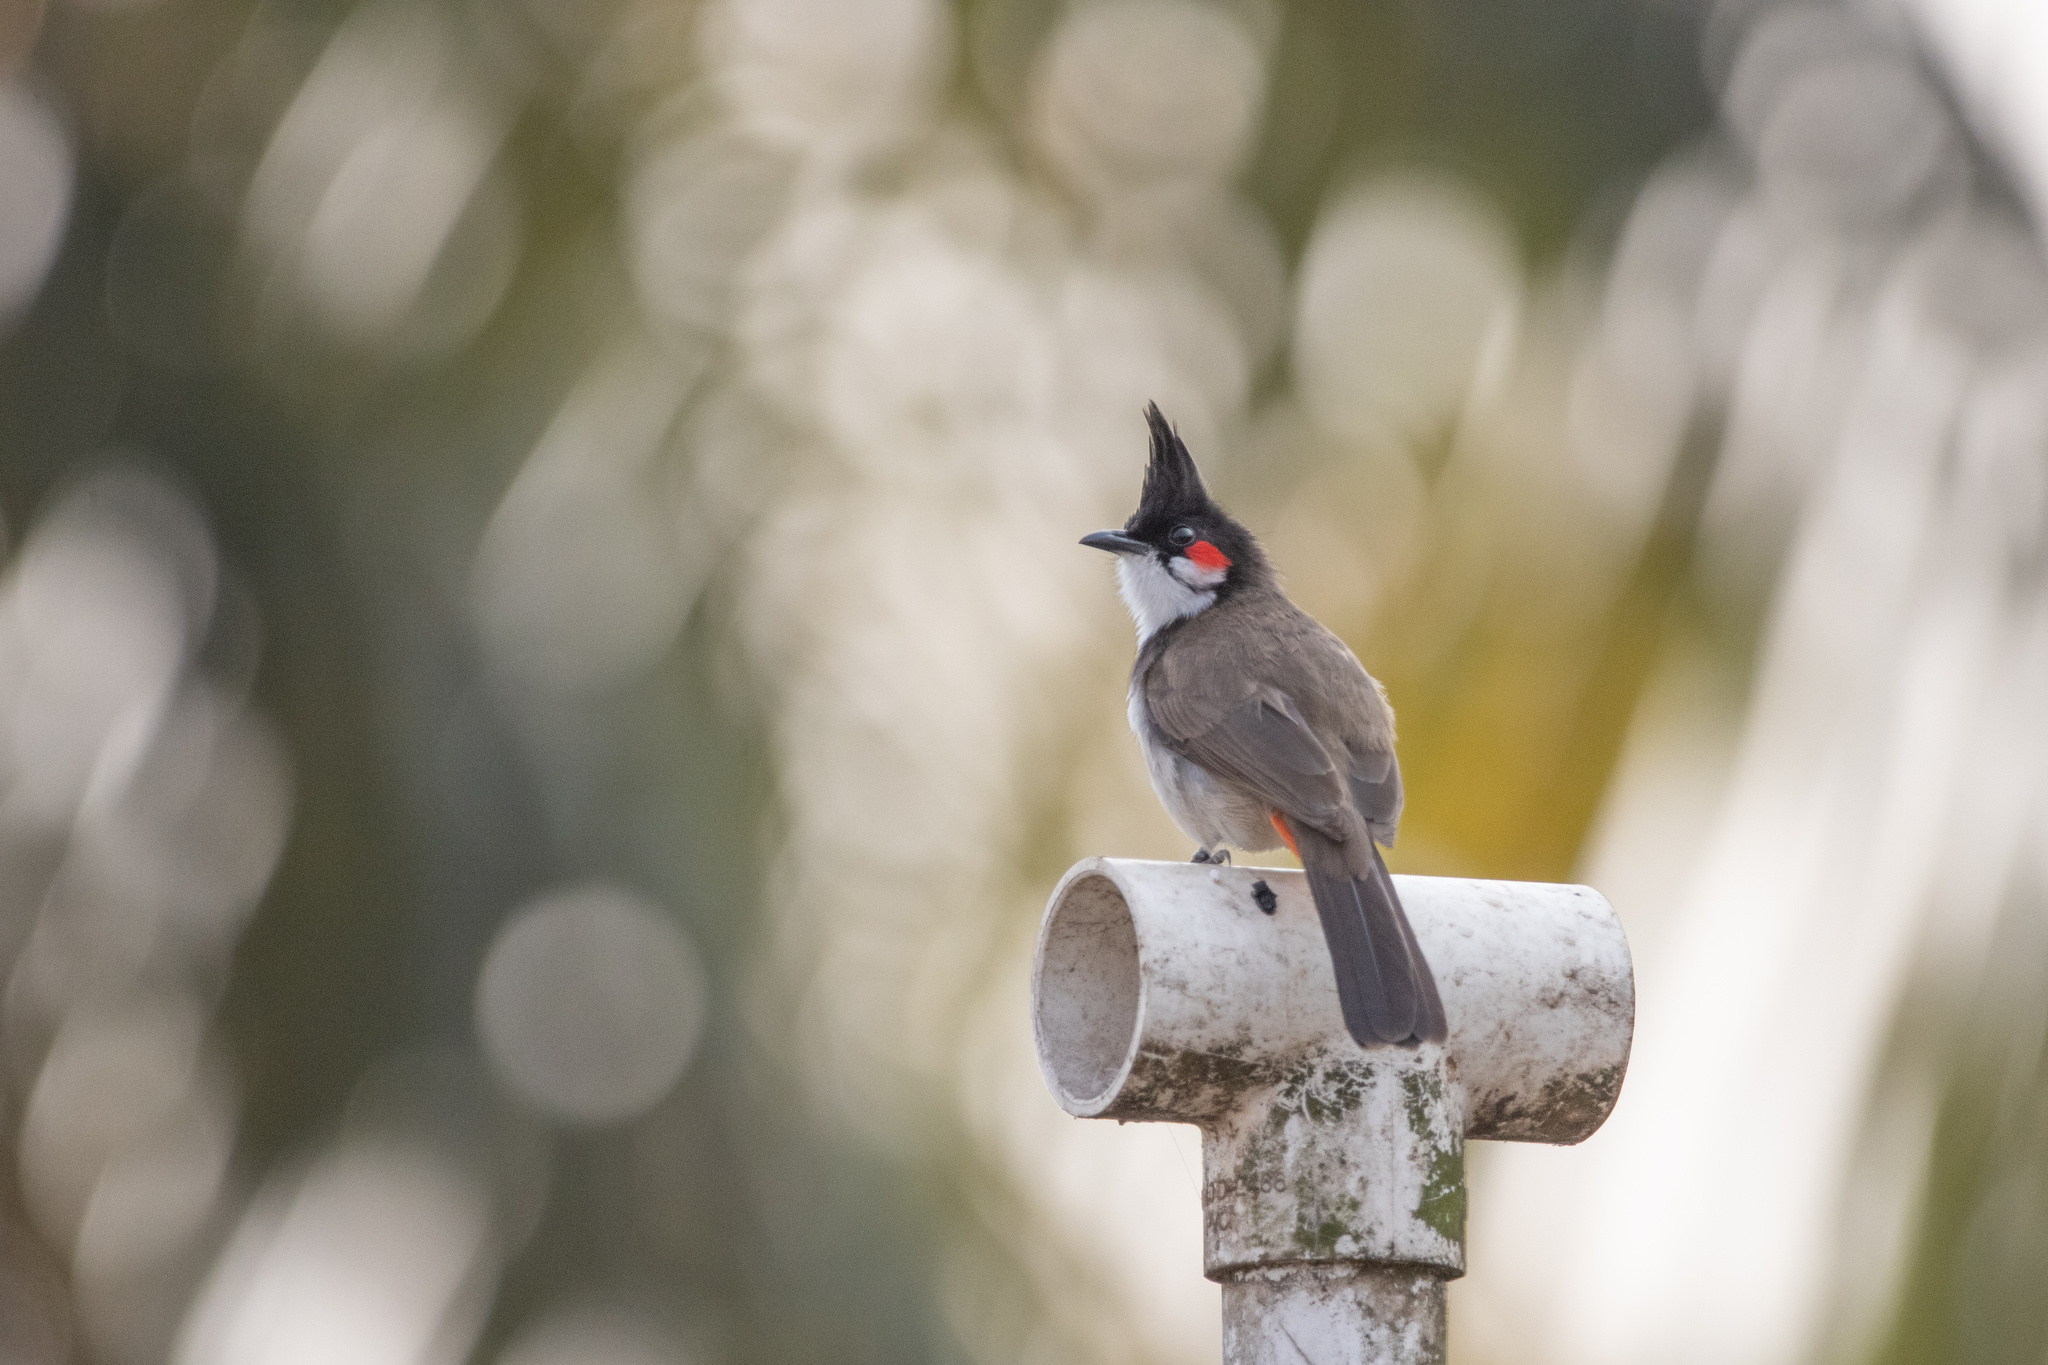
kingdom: Animalia
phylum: Chordata
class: Aves
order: Passeriformes
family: Pycnonotidae
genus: Pycnonotus
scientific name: Pycnonotus jocosus
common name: Red-whiskered bulbul
